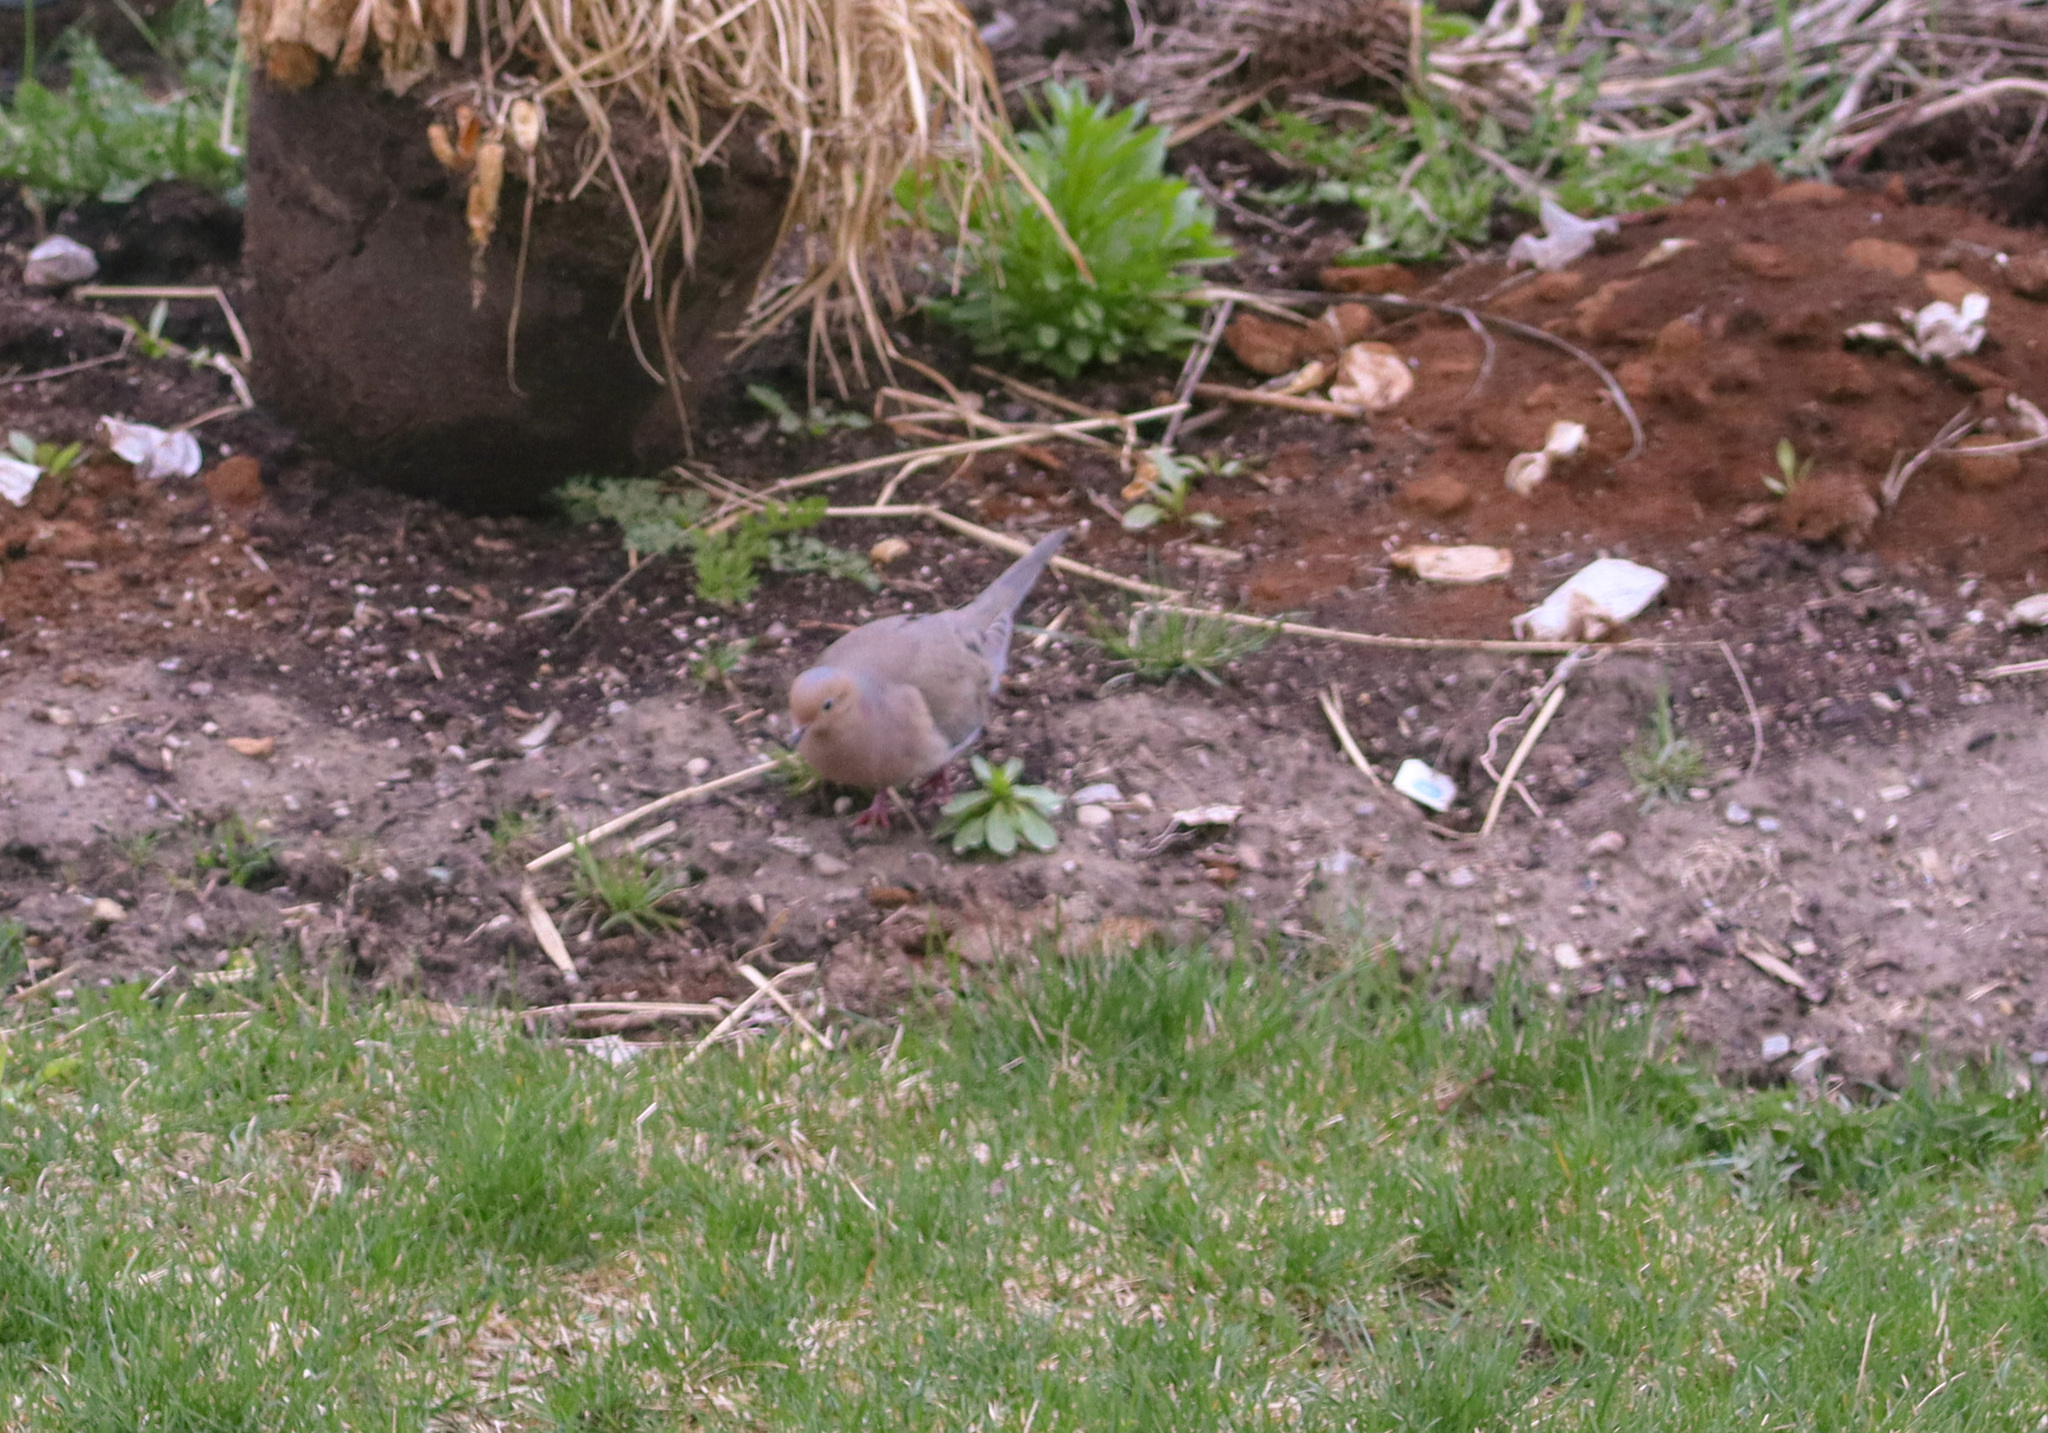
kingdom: Animalia
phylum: Chordata
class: Aves
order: Columbiformes
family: Columbidae
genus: Zenaida
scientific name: Zenaida macroura
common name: Mourning dove
